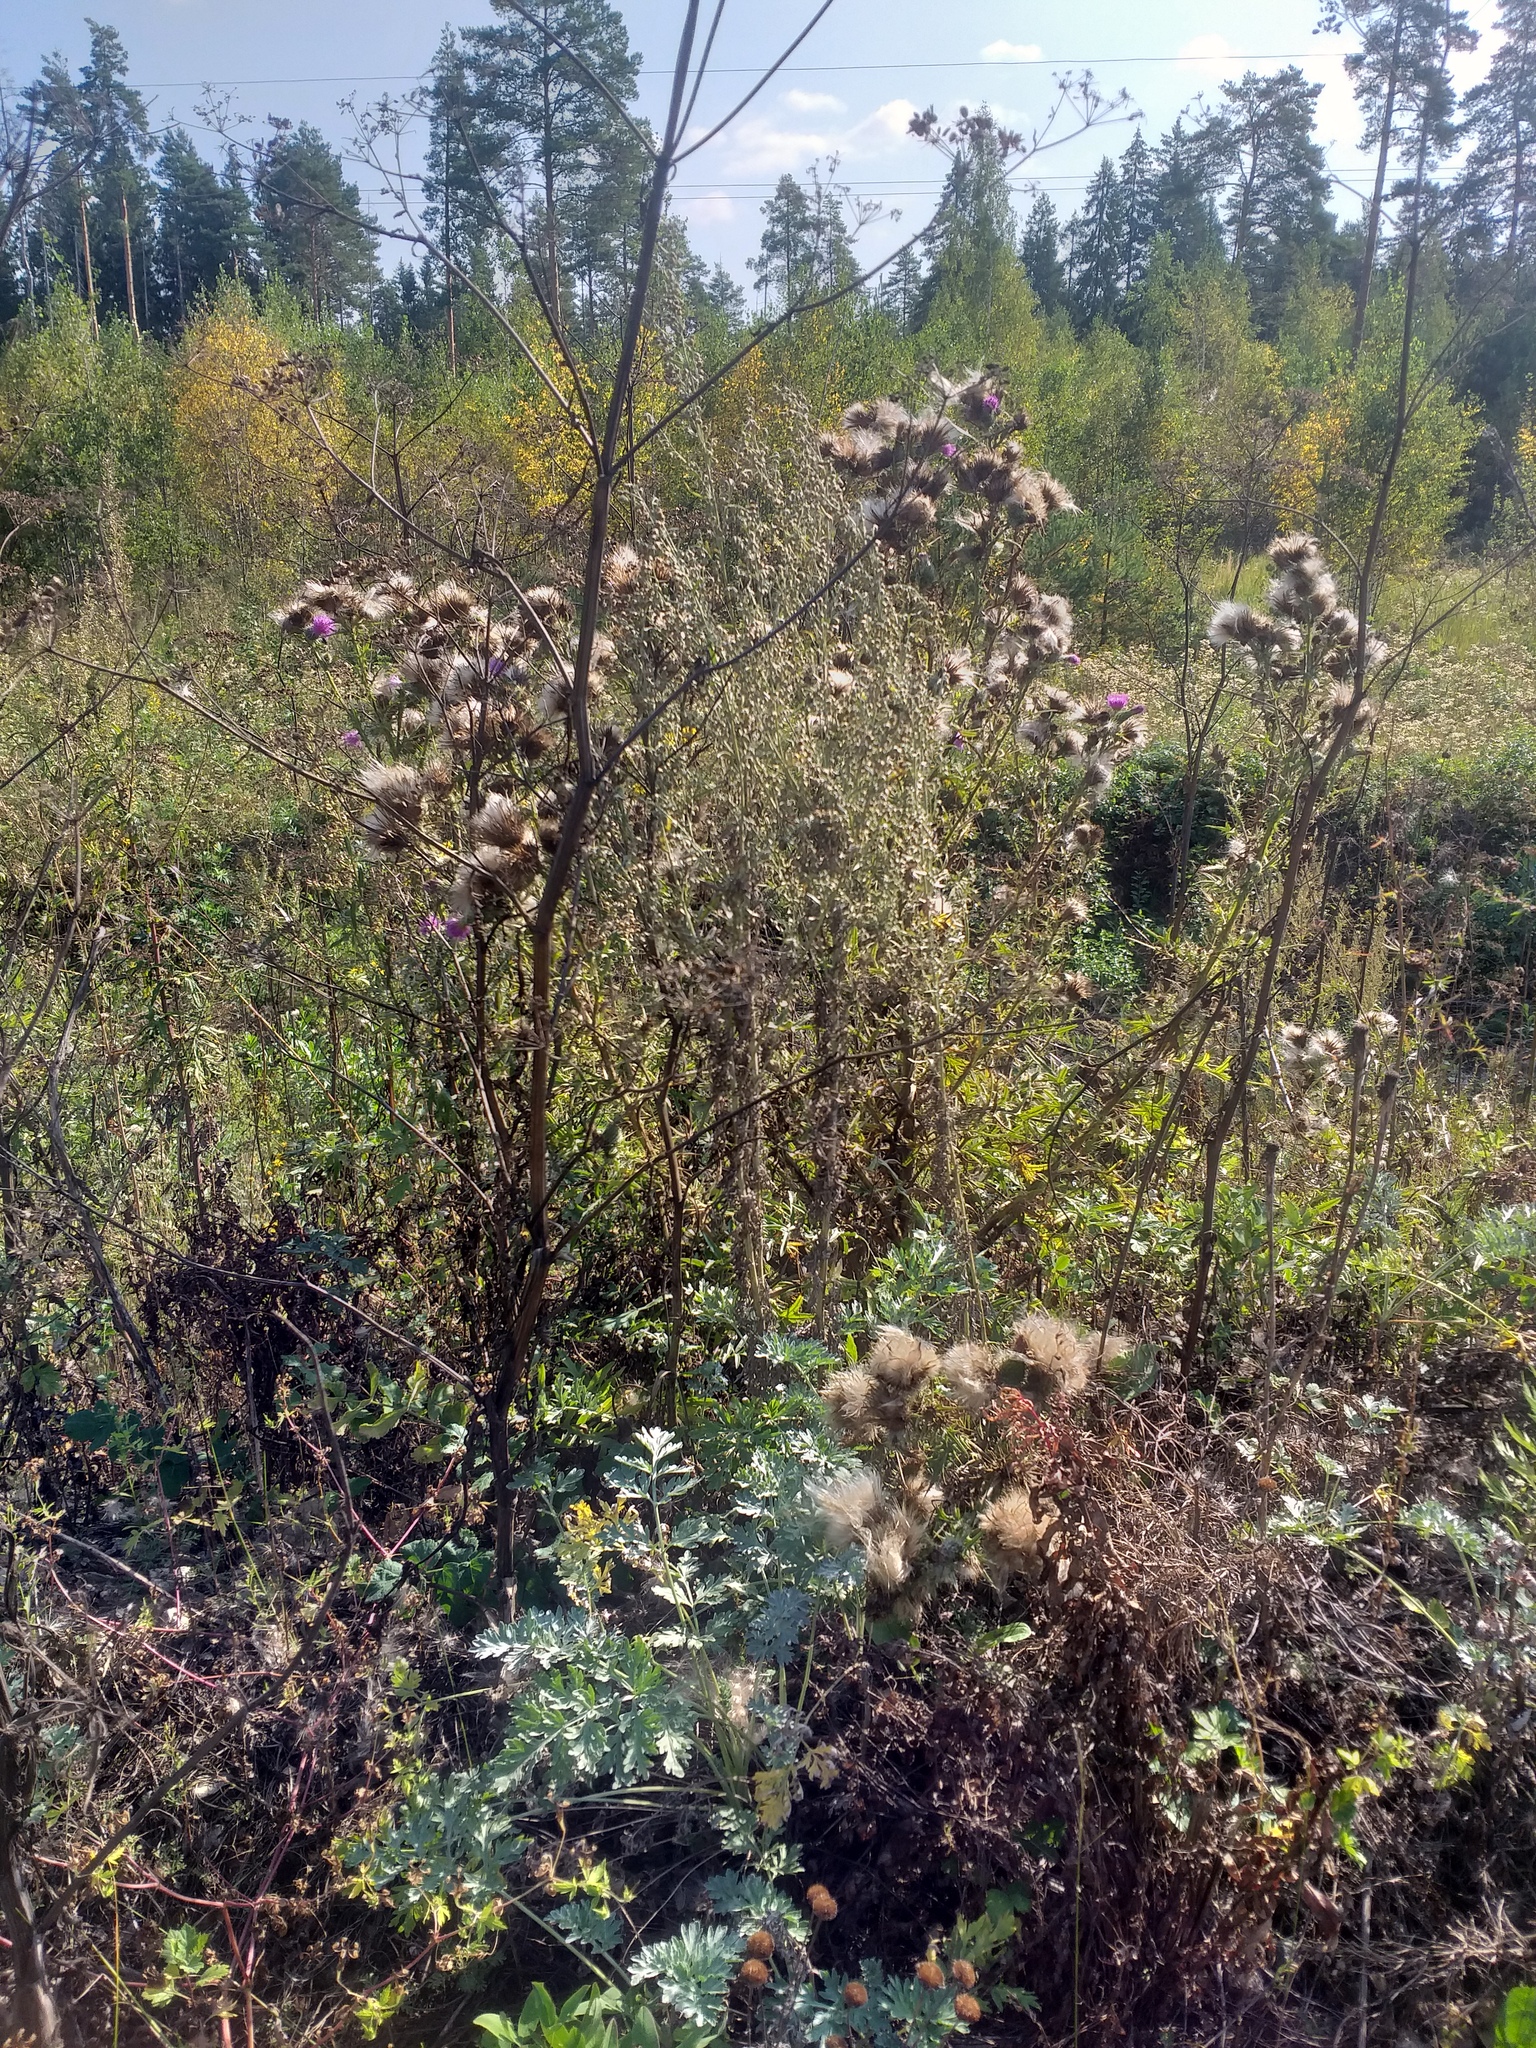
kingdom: Plantae
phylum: Tracheophyta
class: Magnoliopsida
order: Asterales
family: Asteraceae
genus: Cirsium
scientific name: Cirsium vulgare
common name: Bull thistle
